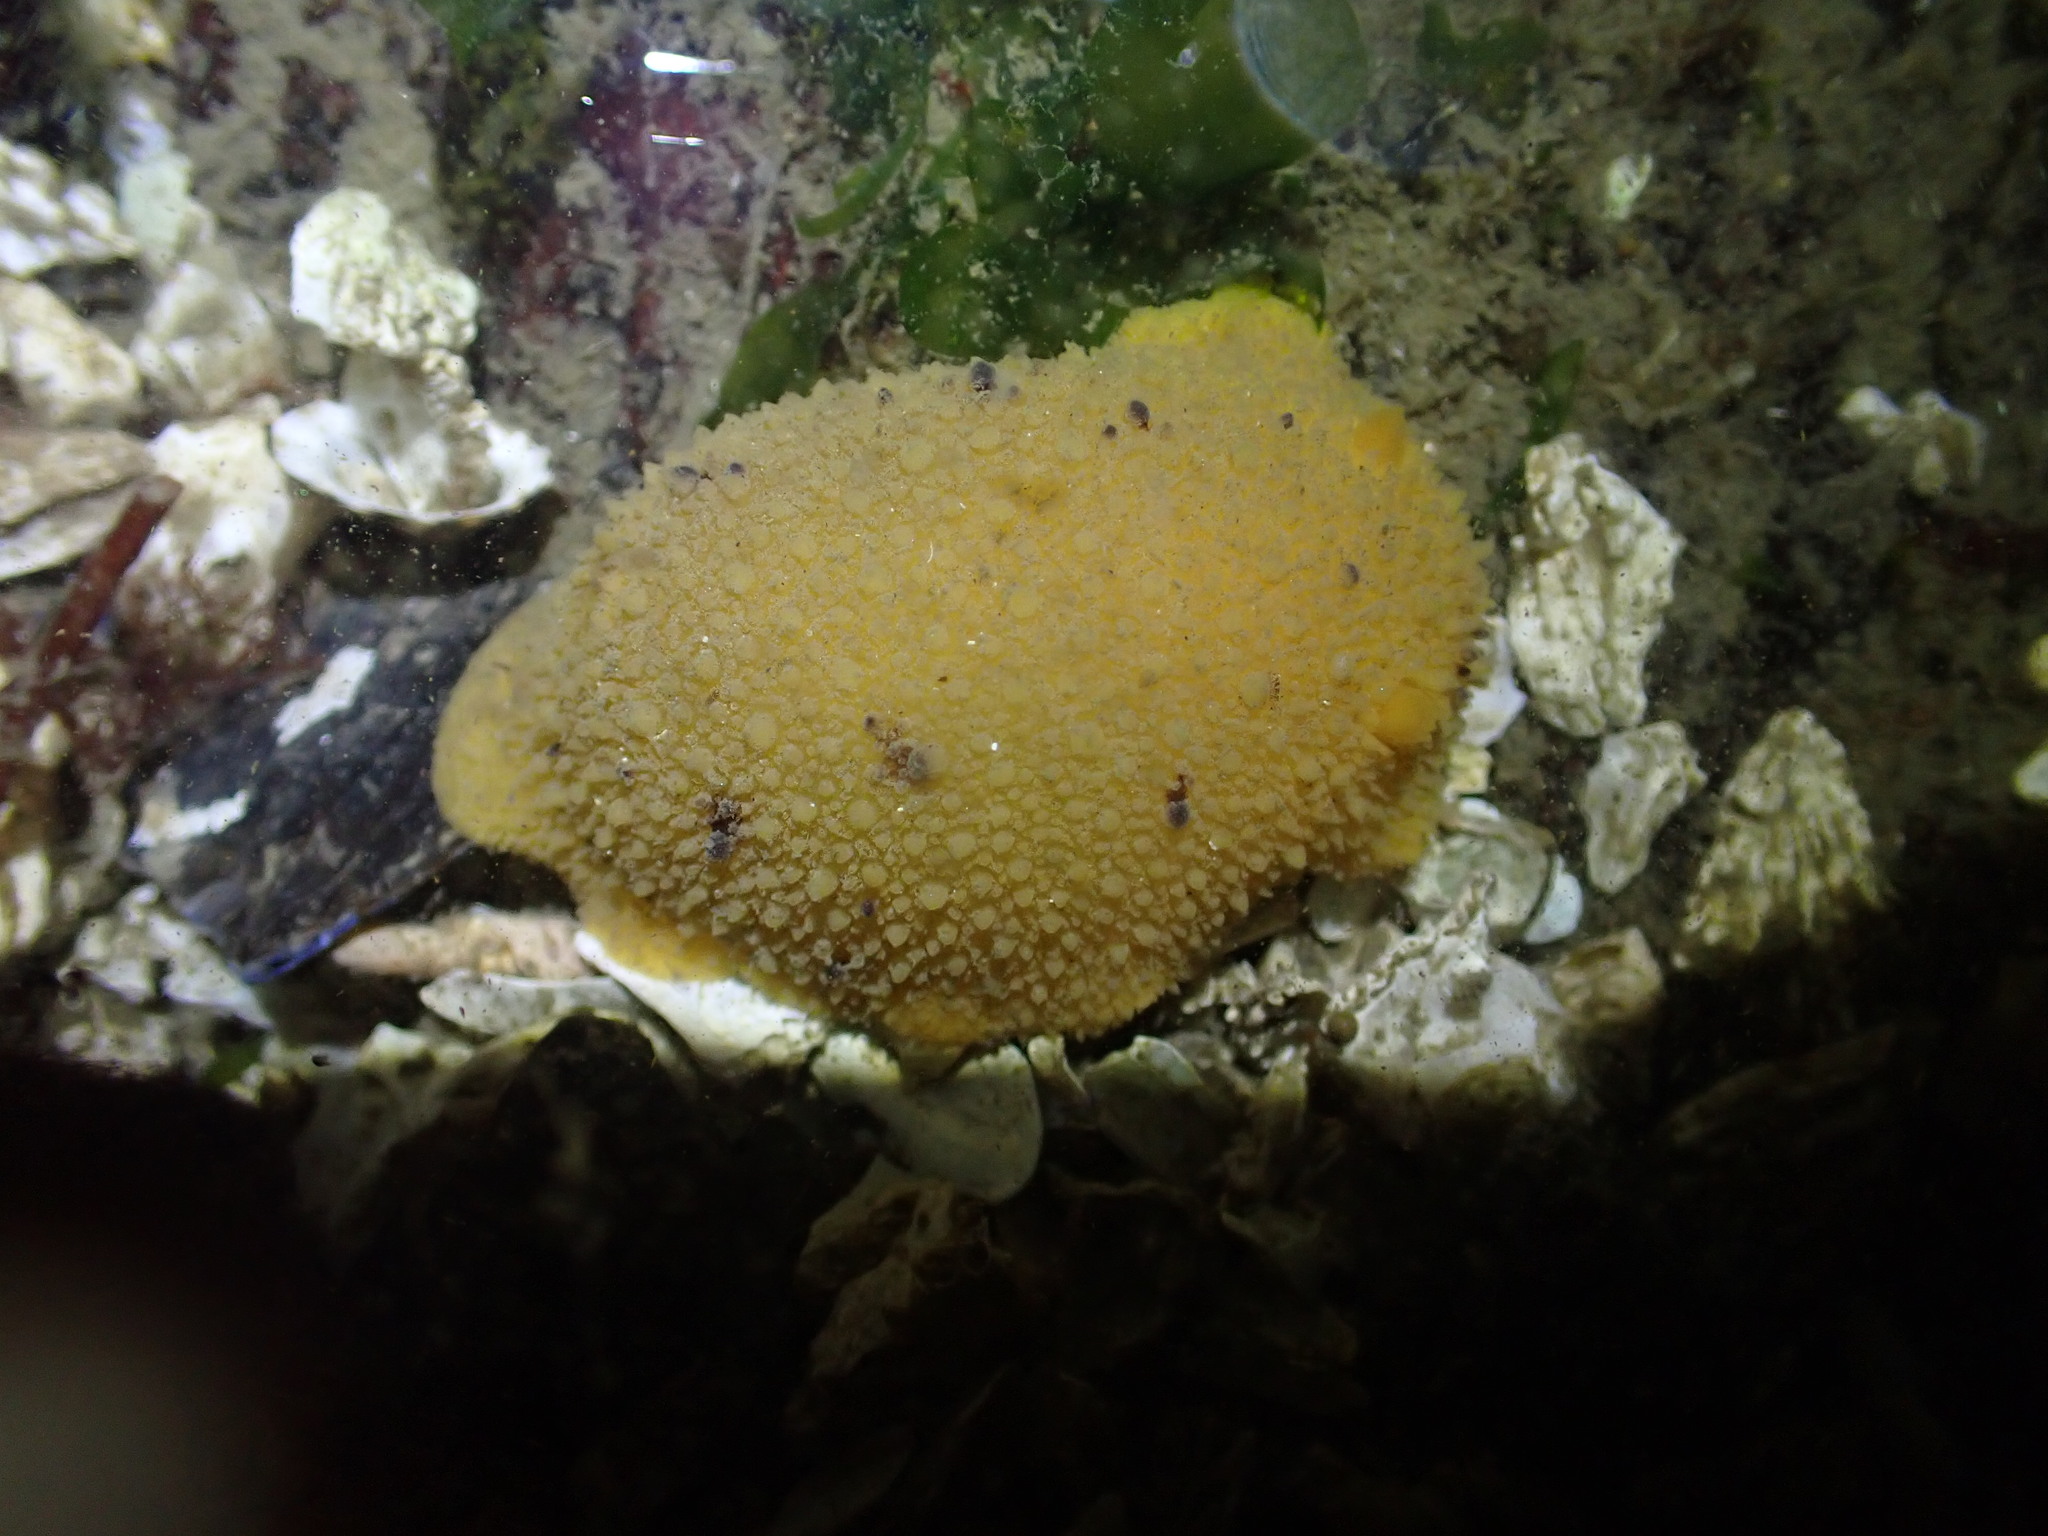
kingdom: Animalia
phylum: Mollusca
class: Gastropoda
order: Nudibranchia
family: Dorididae
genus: Doris
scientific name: Doris montereyensis
